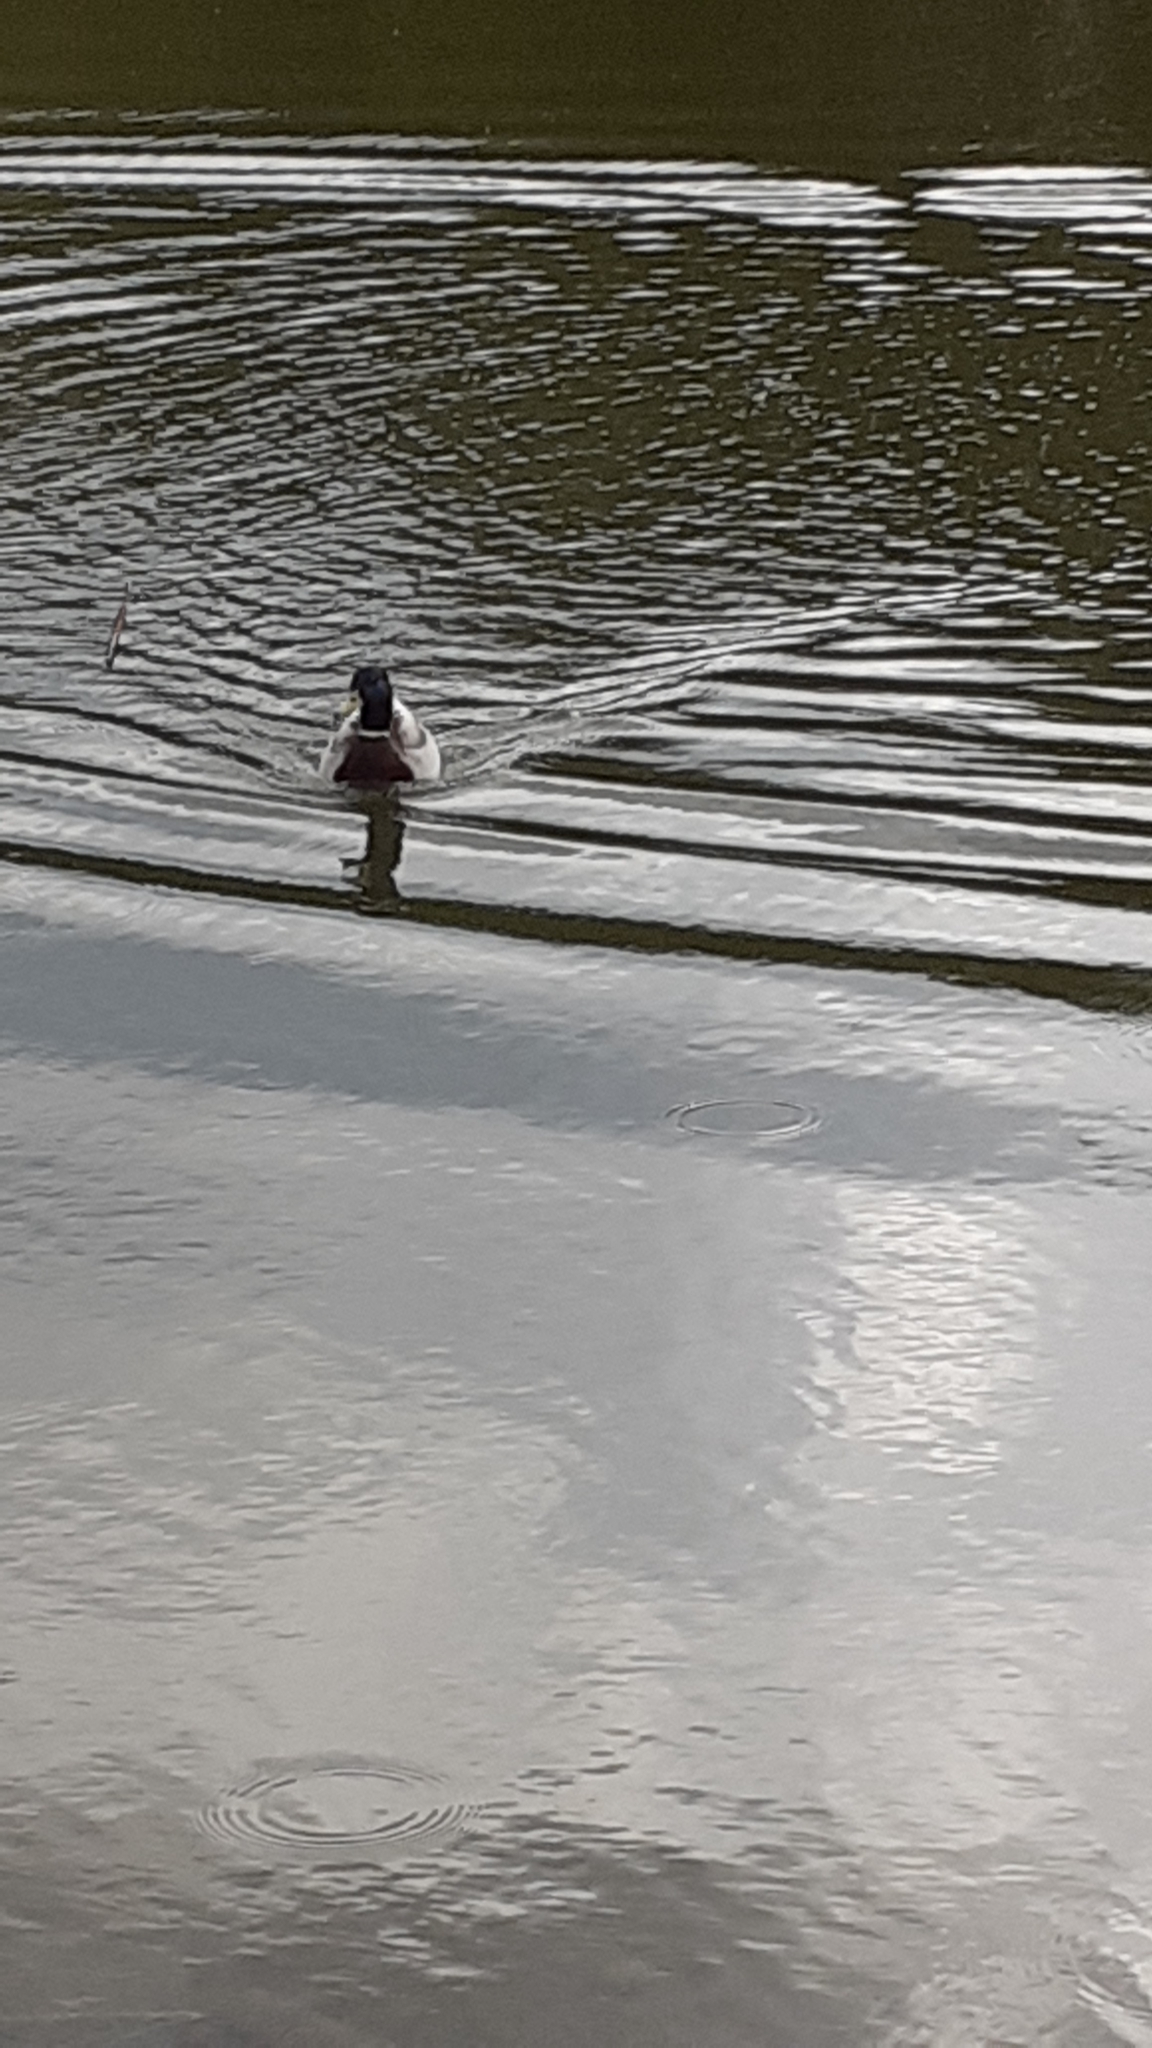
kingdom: Animalia
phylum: Chordata
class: Aves
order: Anseriformes
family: Anatidae
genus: Anas
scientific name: Anas platyrhynchos
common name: Mallard
